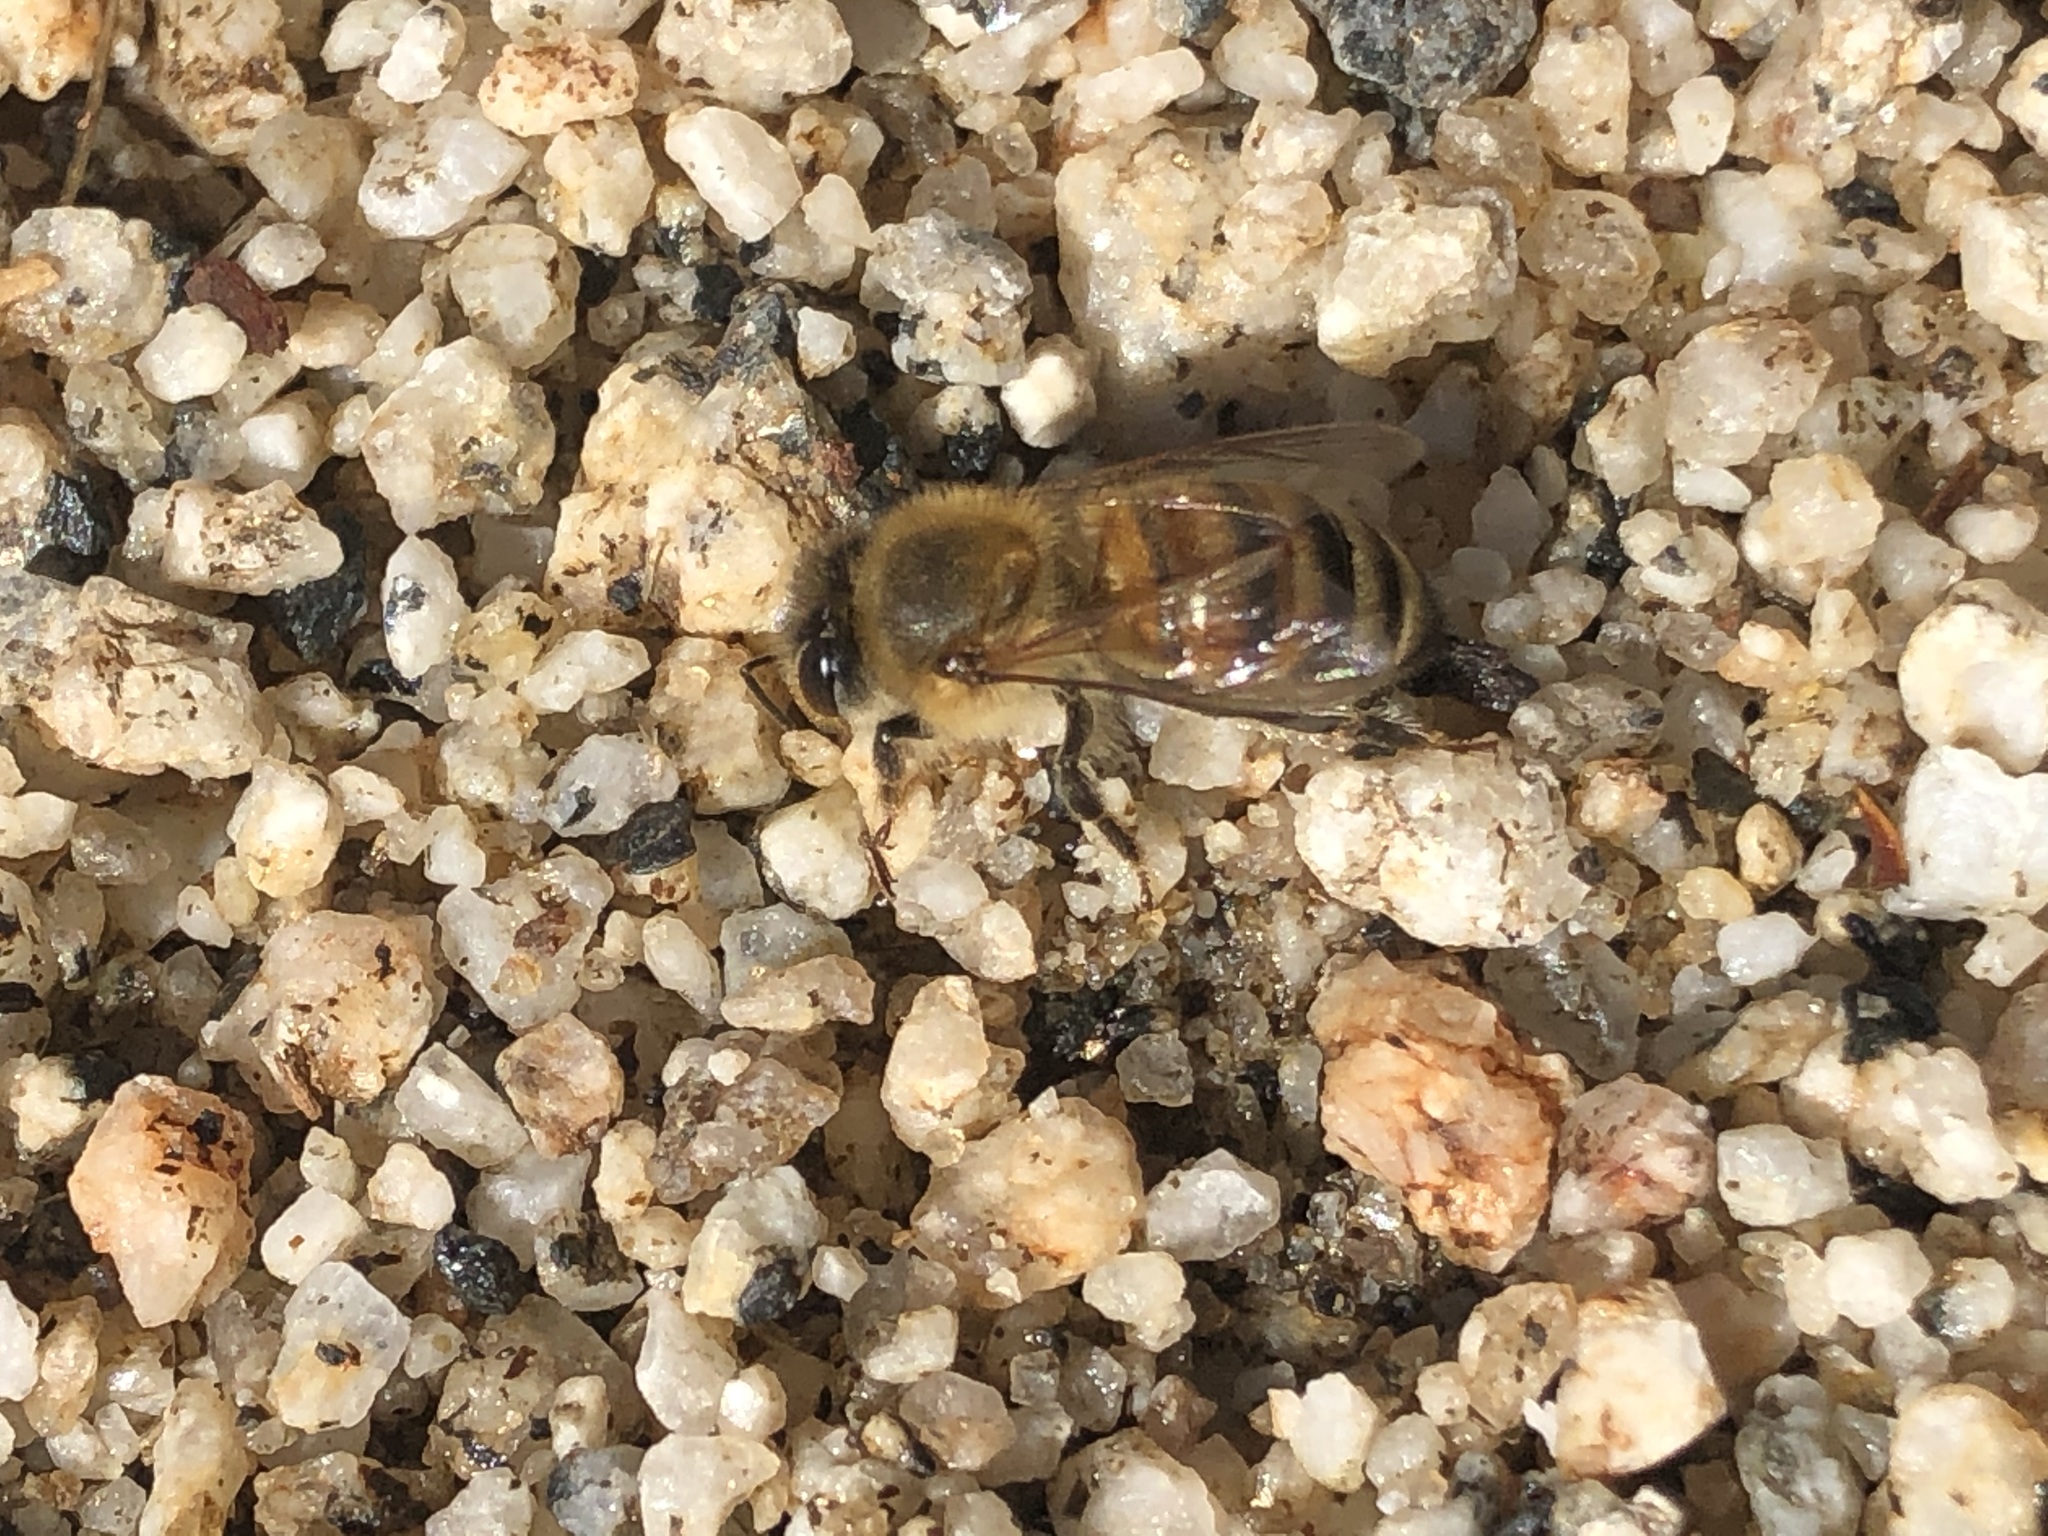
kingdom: Animalia
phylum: Arthropoda
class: Insecta
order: Hymenoptera
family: Apidae
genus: Apis
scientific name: Apis mellifera
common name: Honey bee
